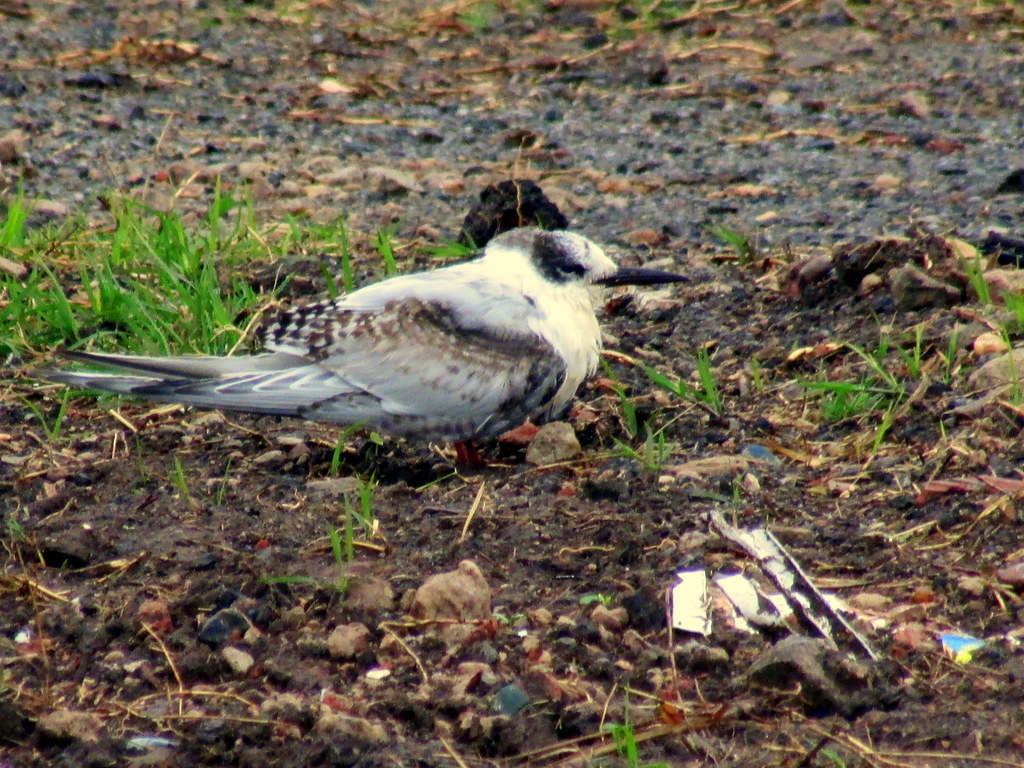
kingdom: Animalia
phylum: Chordata
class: Aves
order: Charadriiformes
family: Laridae
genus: Sterna
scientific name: Sterna hirundinacea
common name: South american tern
